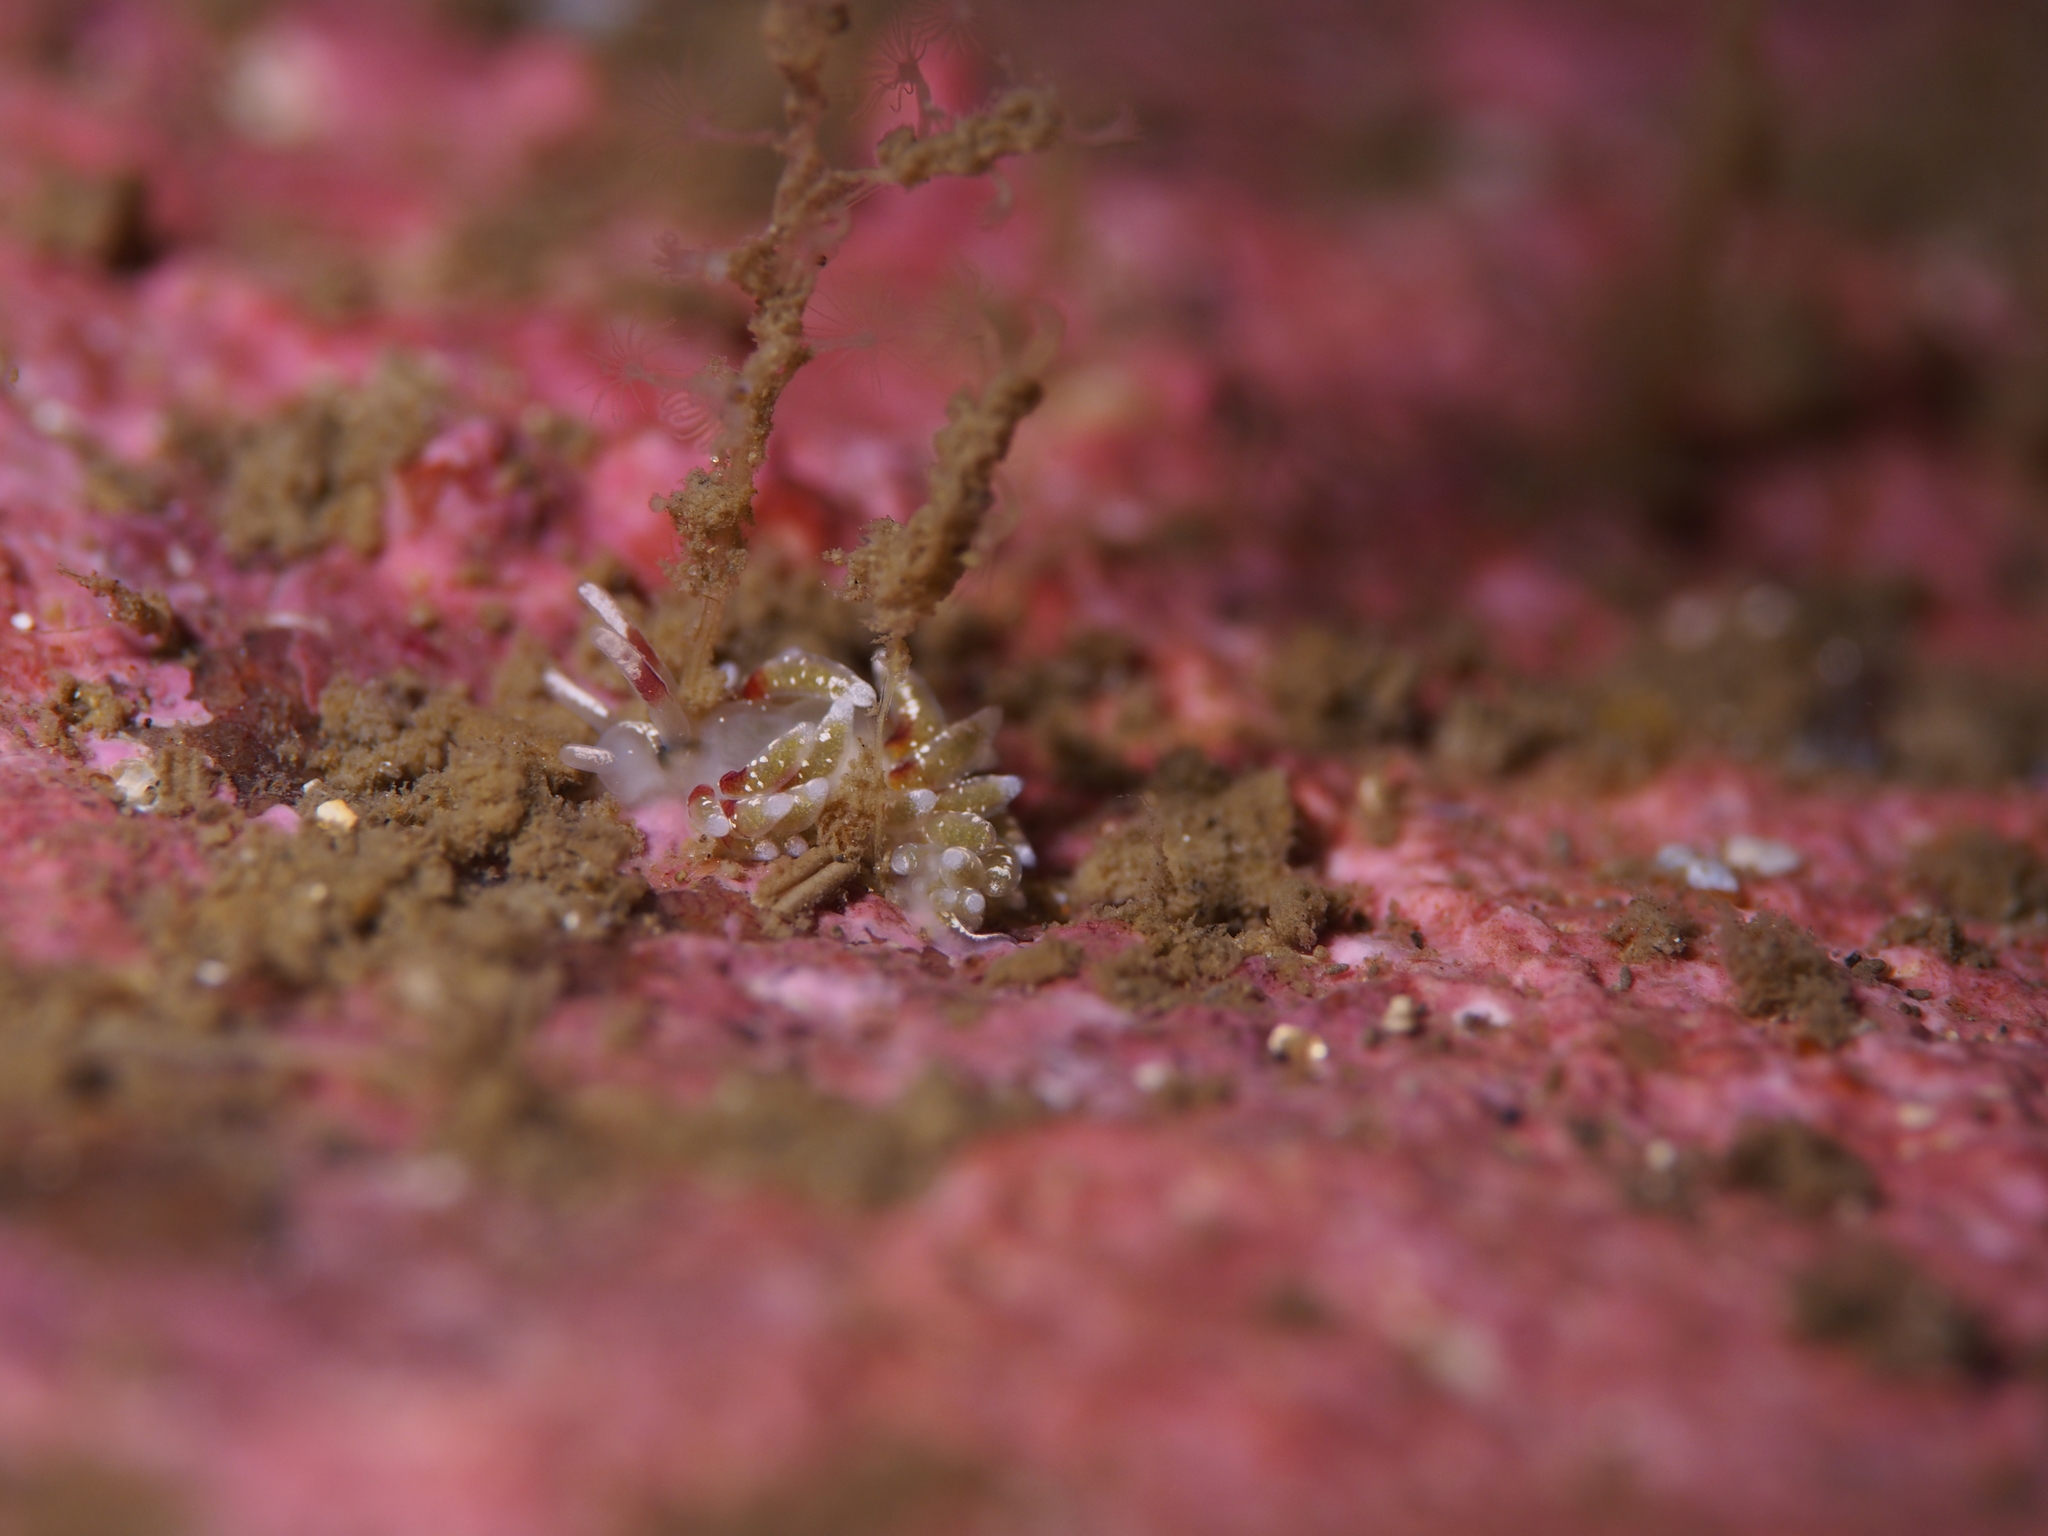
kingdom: Animalia
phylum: Mollusca
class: Gastropoda
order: Nudibranchia
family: Trinchesiidae
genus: Rubramoena
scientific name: Rubramoena rubescens
